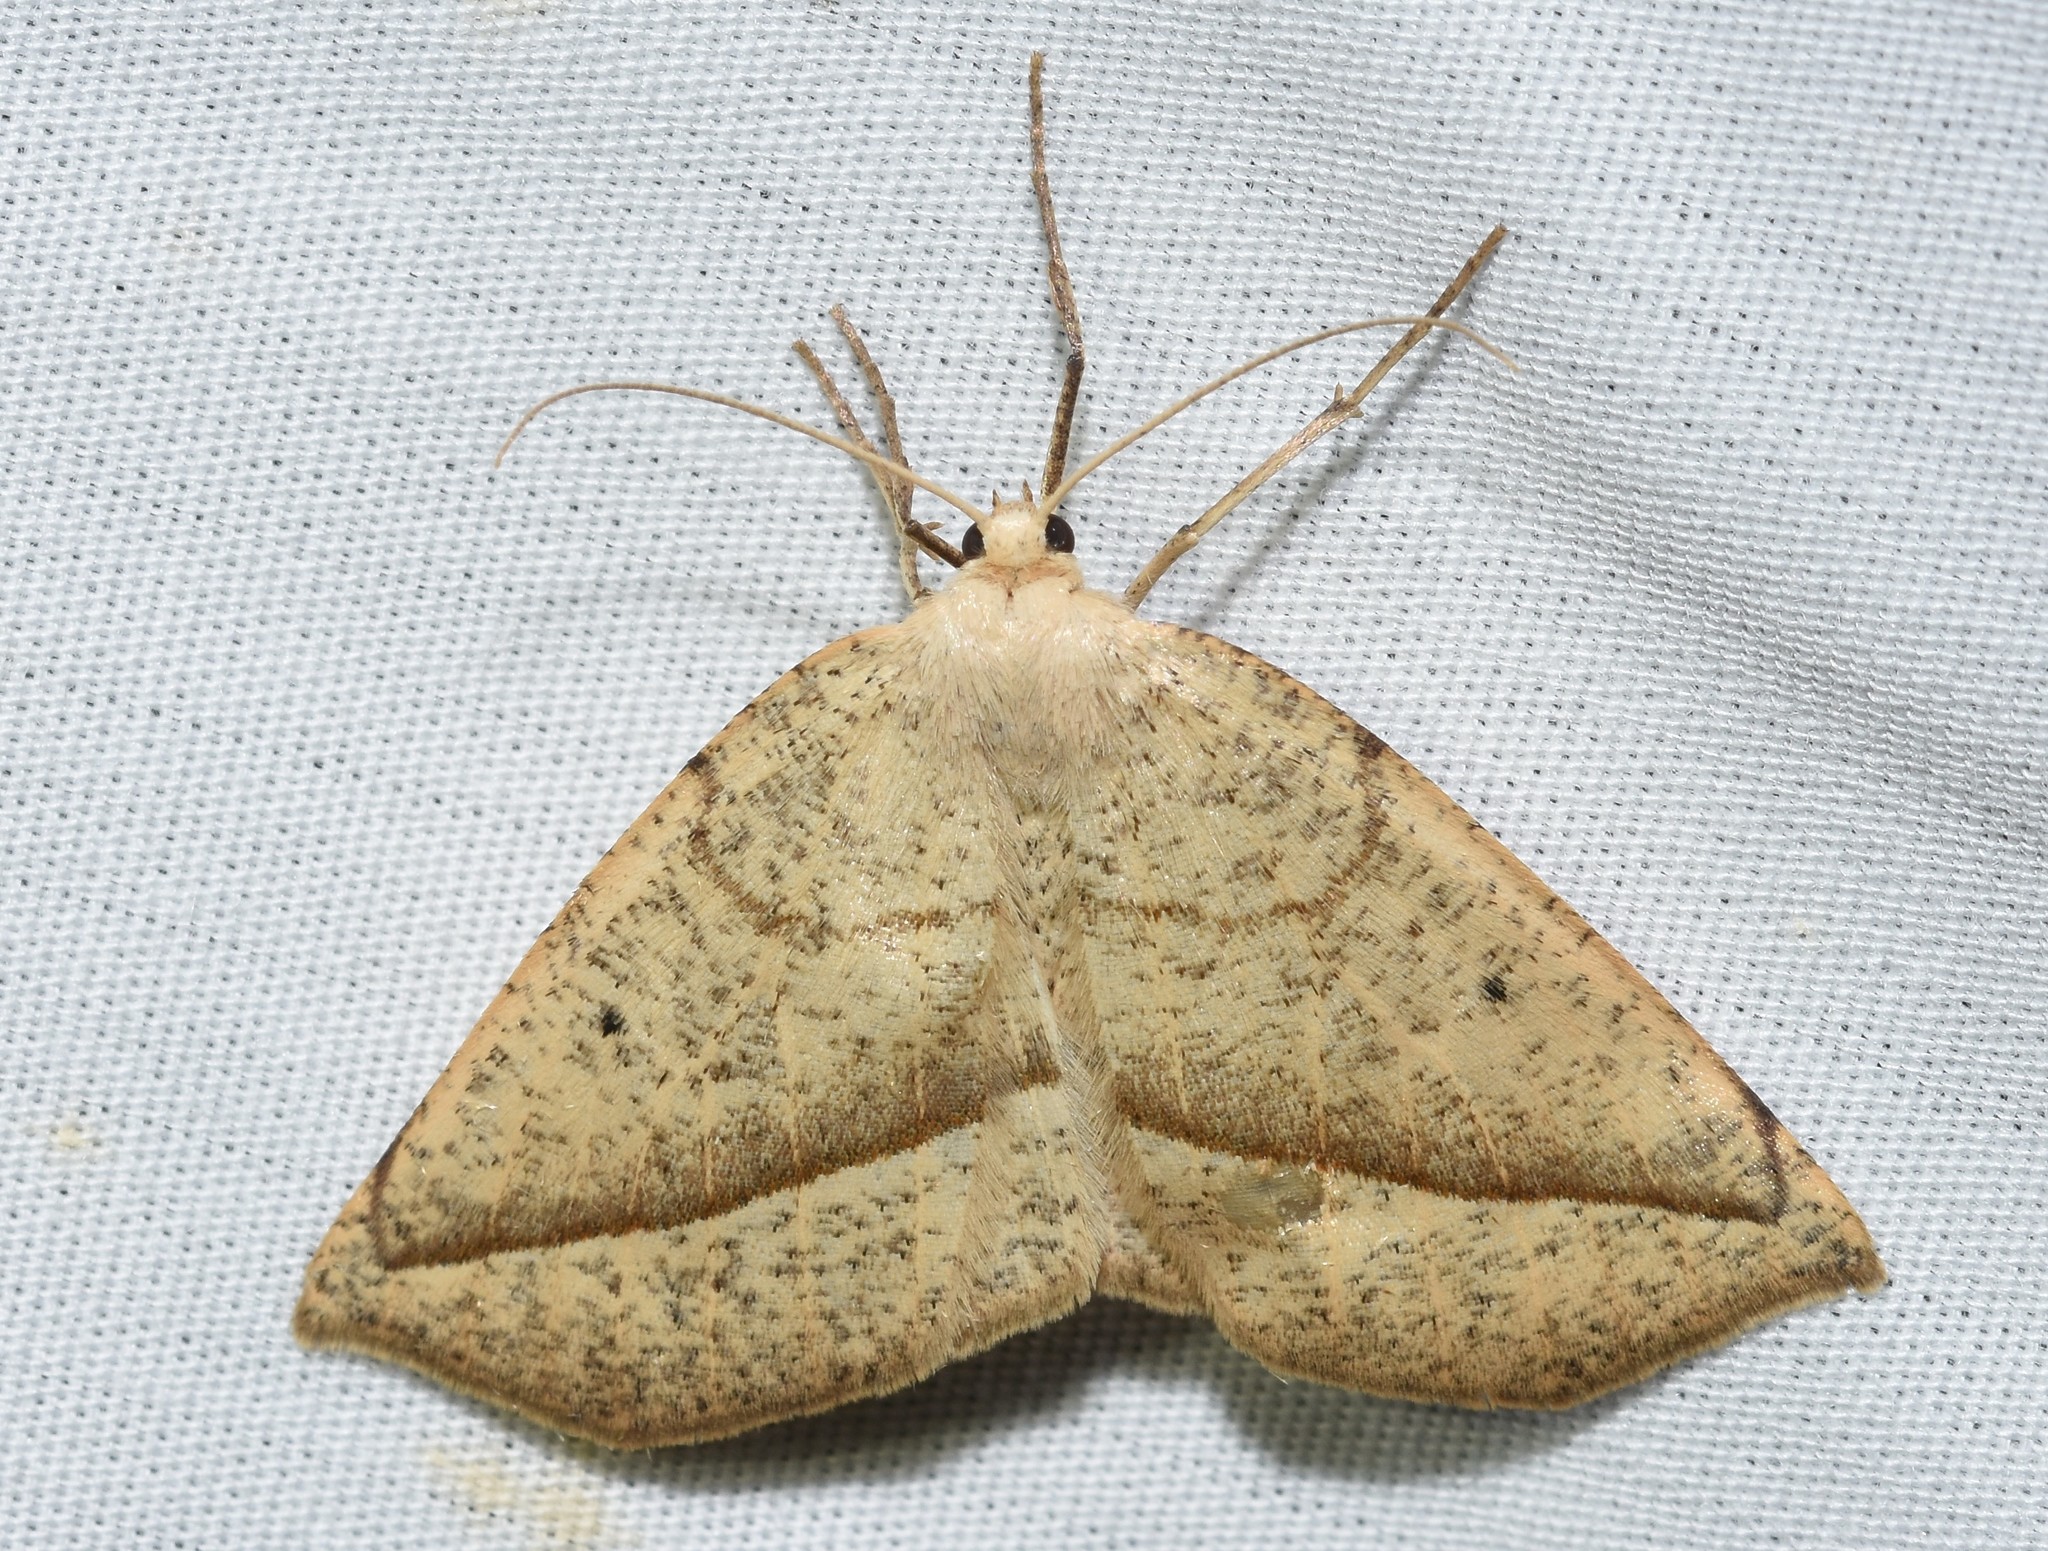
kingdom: Animalia
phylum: Arthropoda
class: Insecta
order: Lepidoptera
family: Geometridae
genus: Eusarca
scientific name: Eusarca confusaria
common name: Confused eusarca
